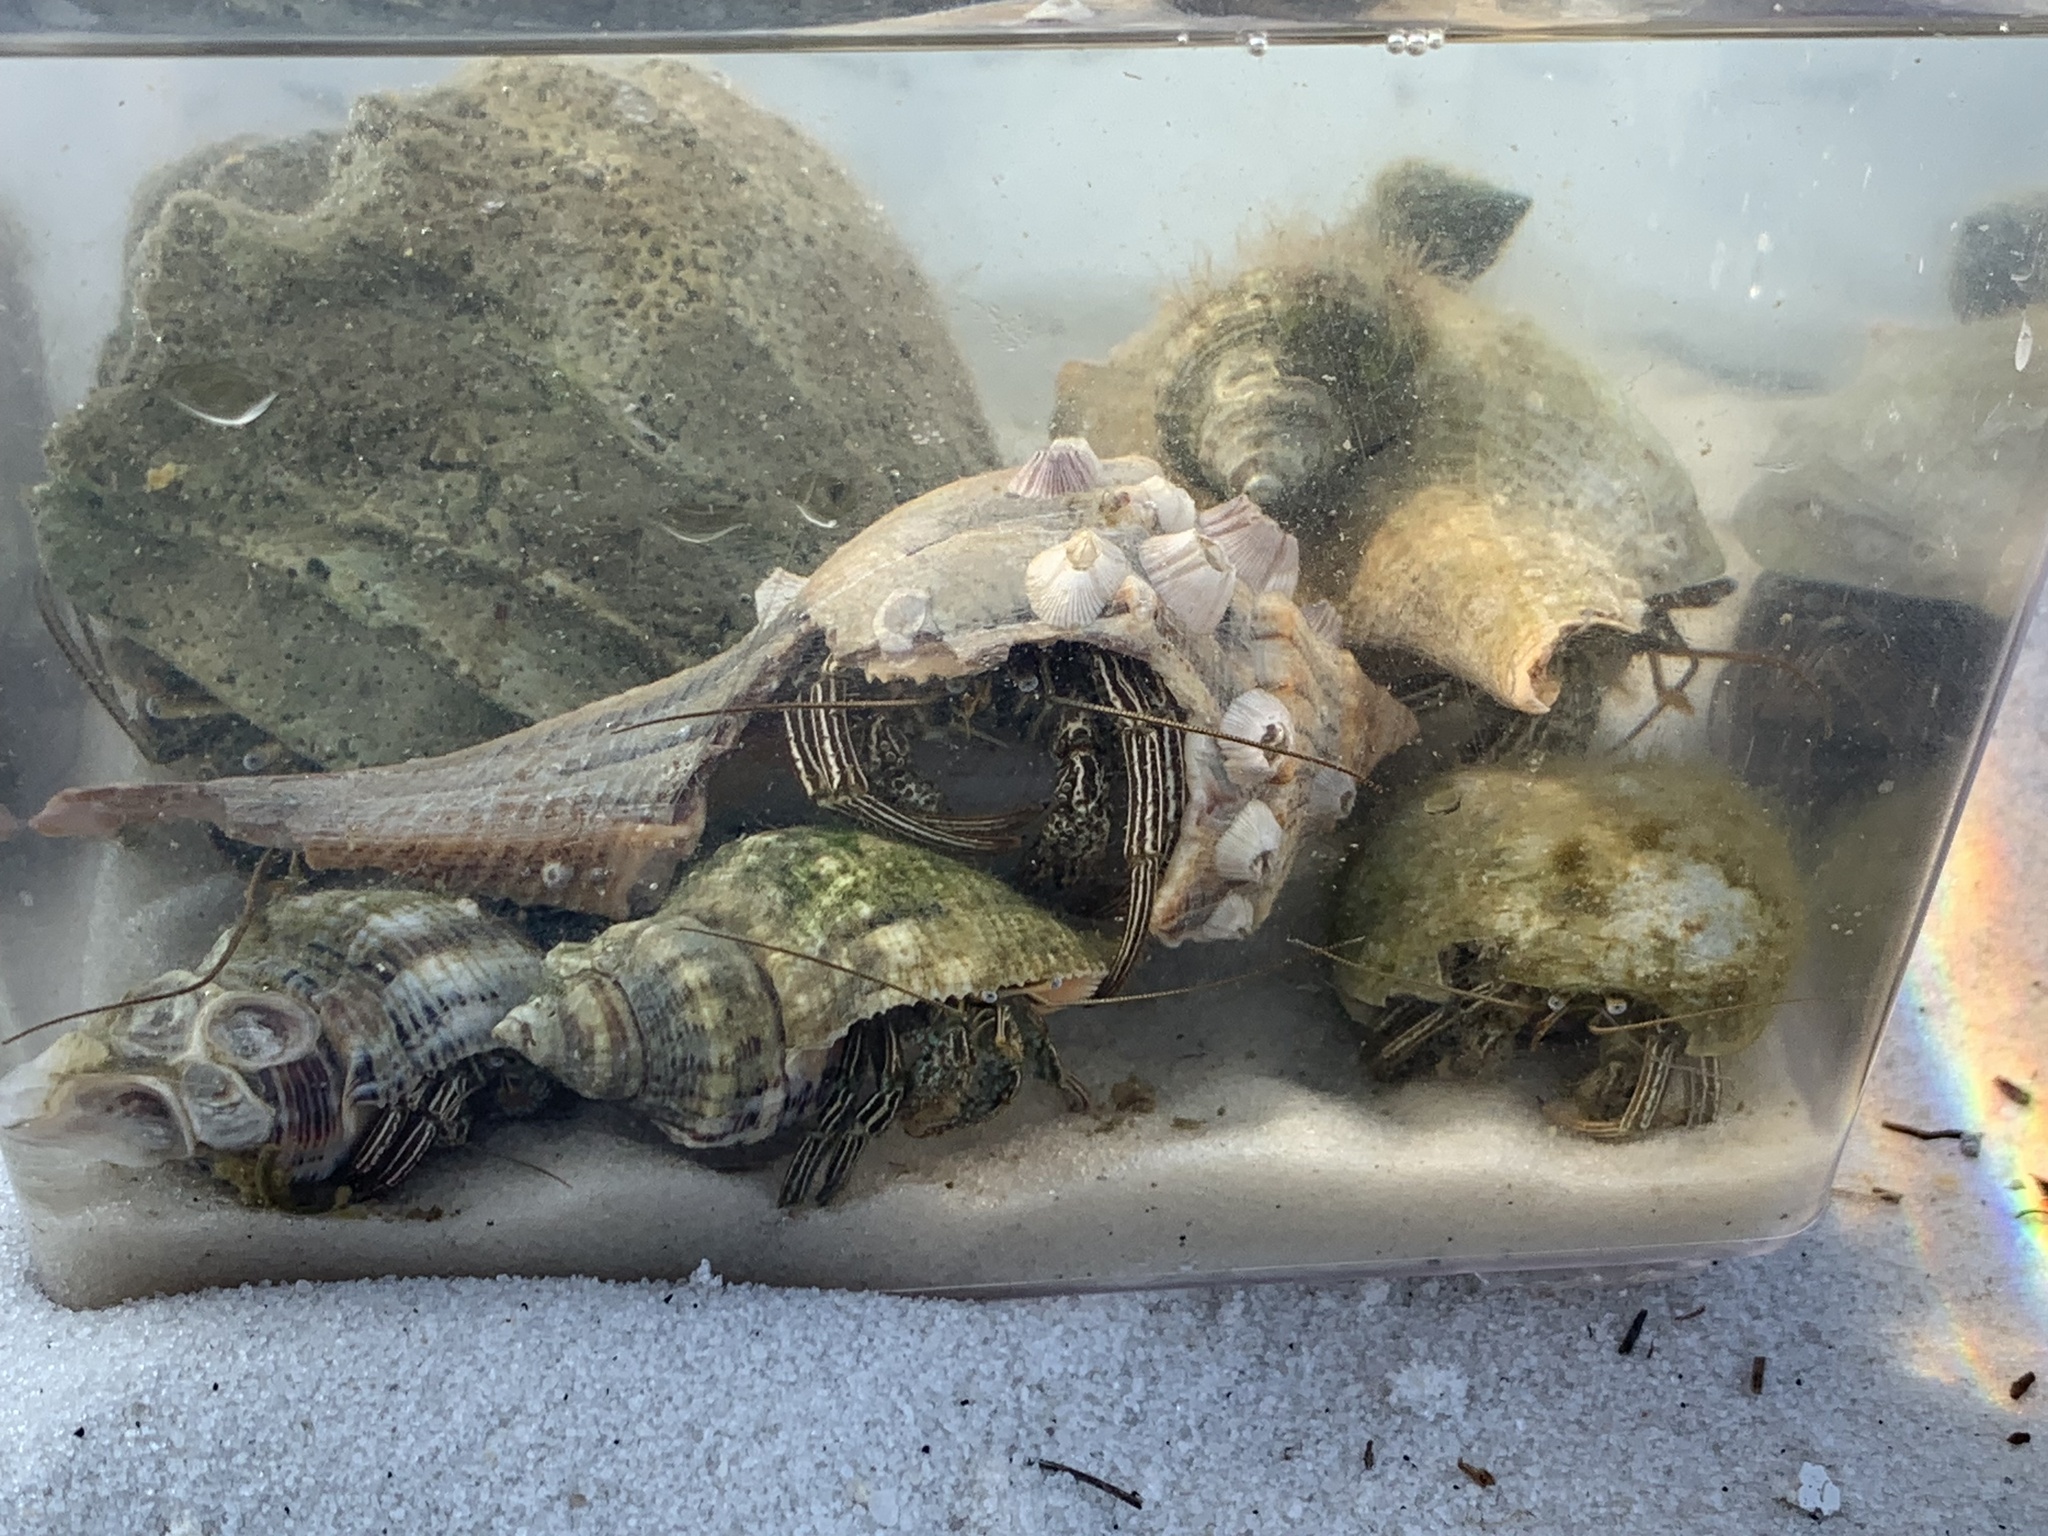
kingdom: Animalia
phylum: Arthropoda
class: Malacostraca
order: Decapoda
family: Diogenidae
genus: Clibanarius
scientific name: Clibanarius vittatus
